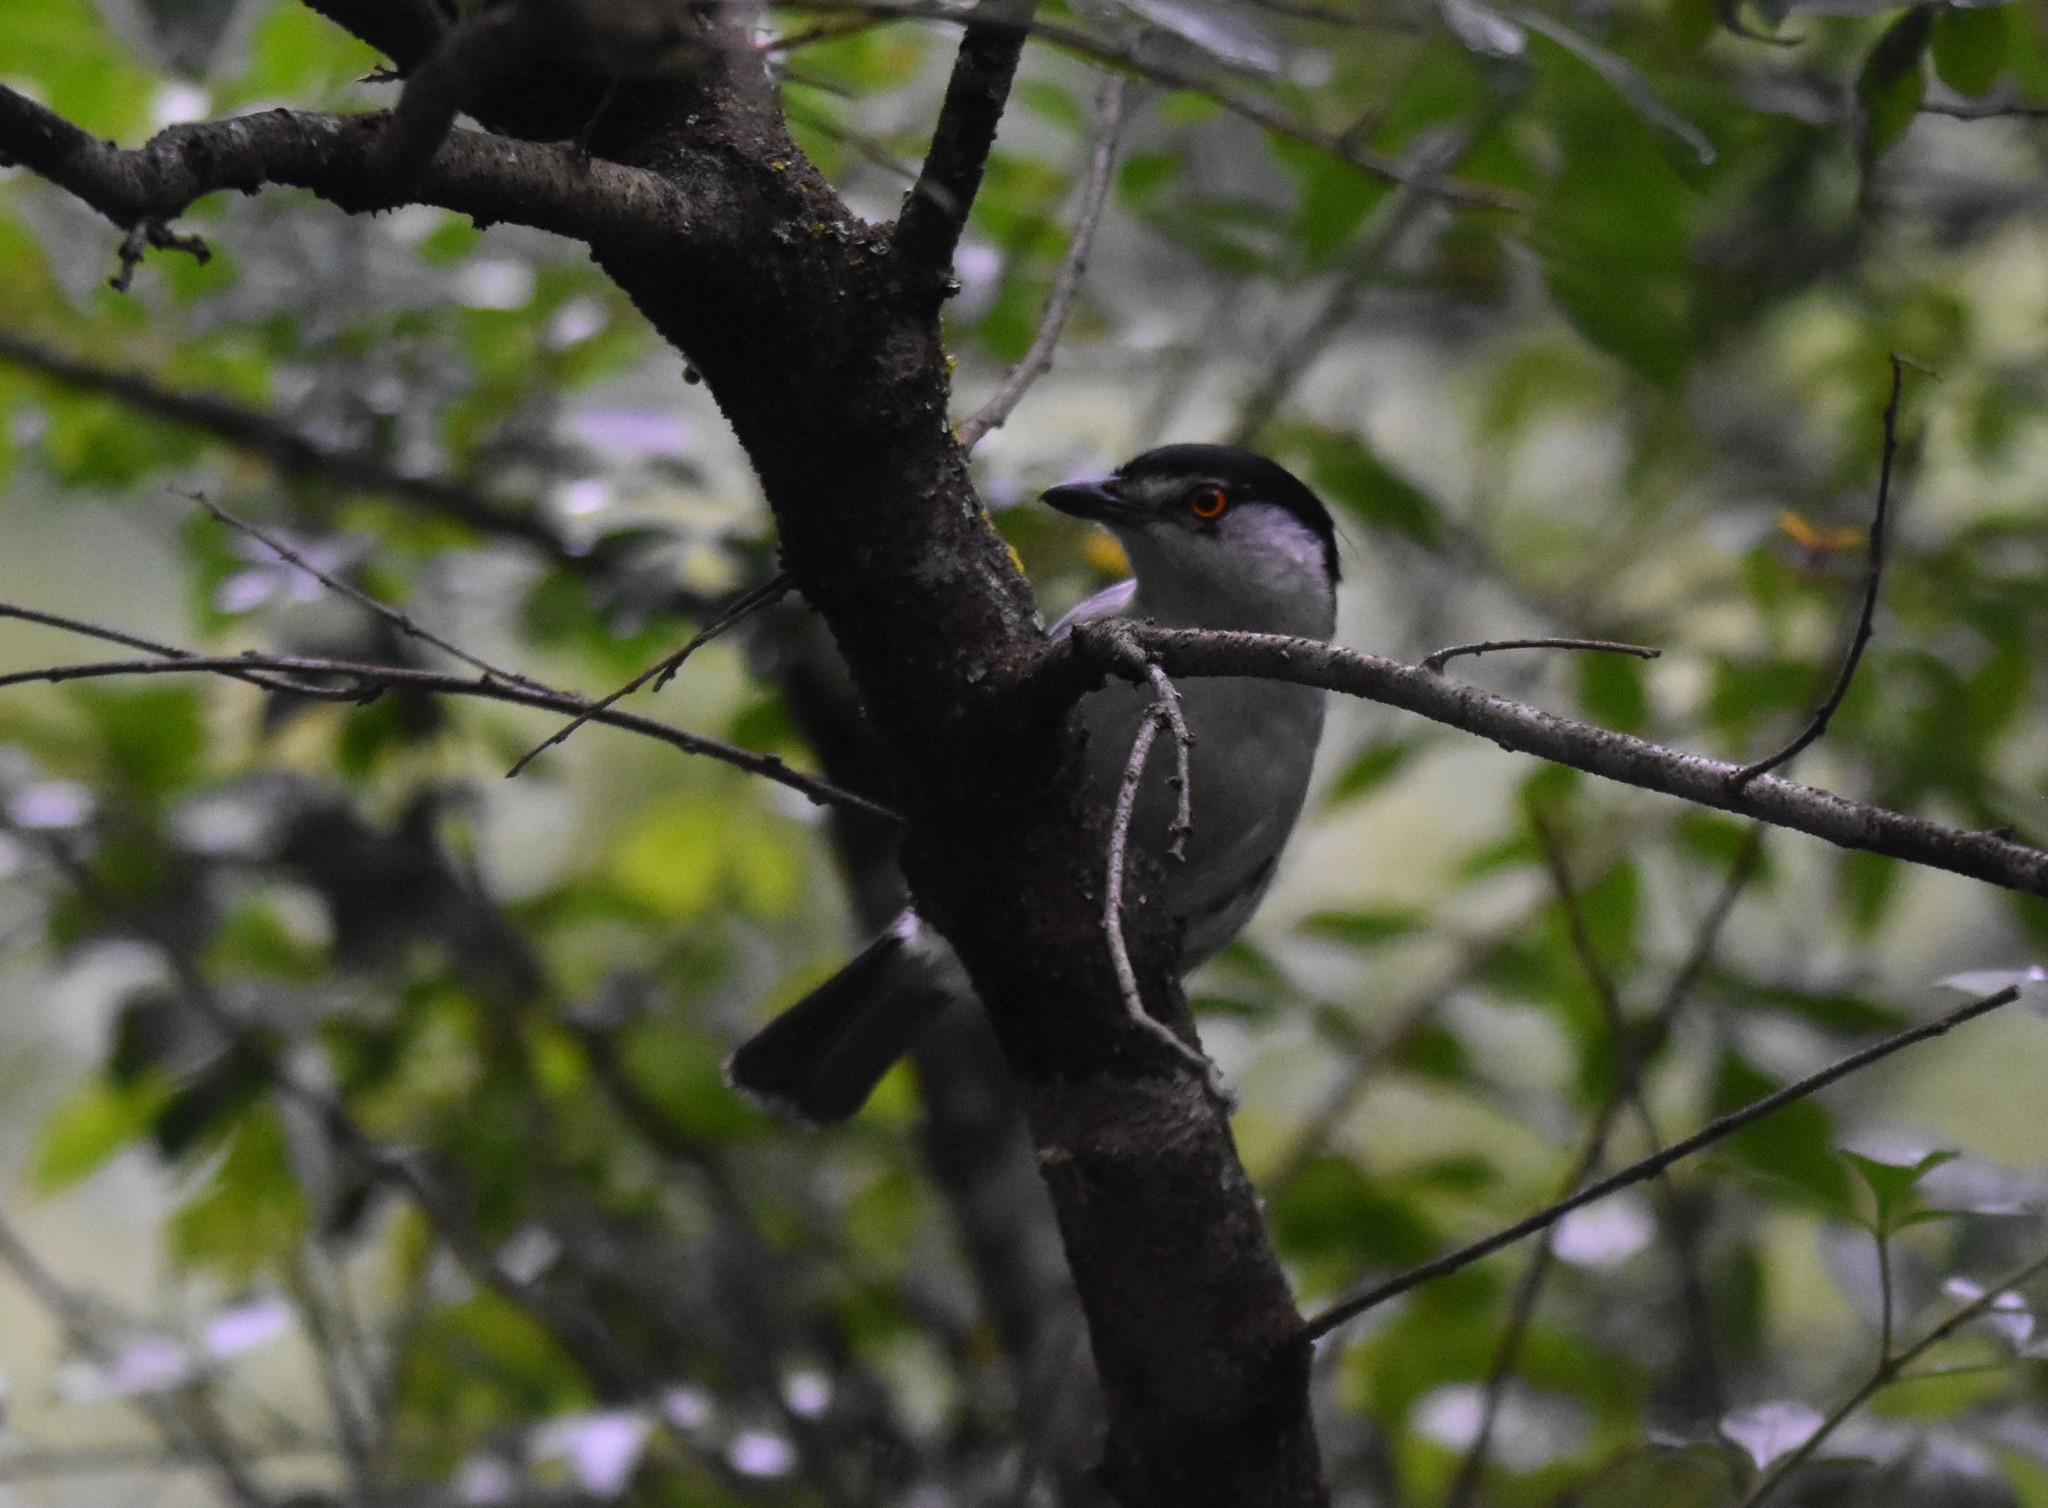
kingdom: Animalia
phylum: Chordata
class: Aves
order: Passeriformes
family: Malaconotidae
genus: Dryoscopus
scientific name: Dryoscopus cubla
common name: Black-backed puffback
